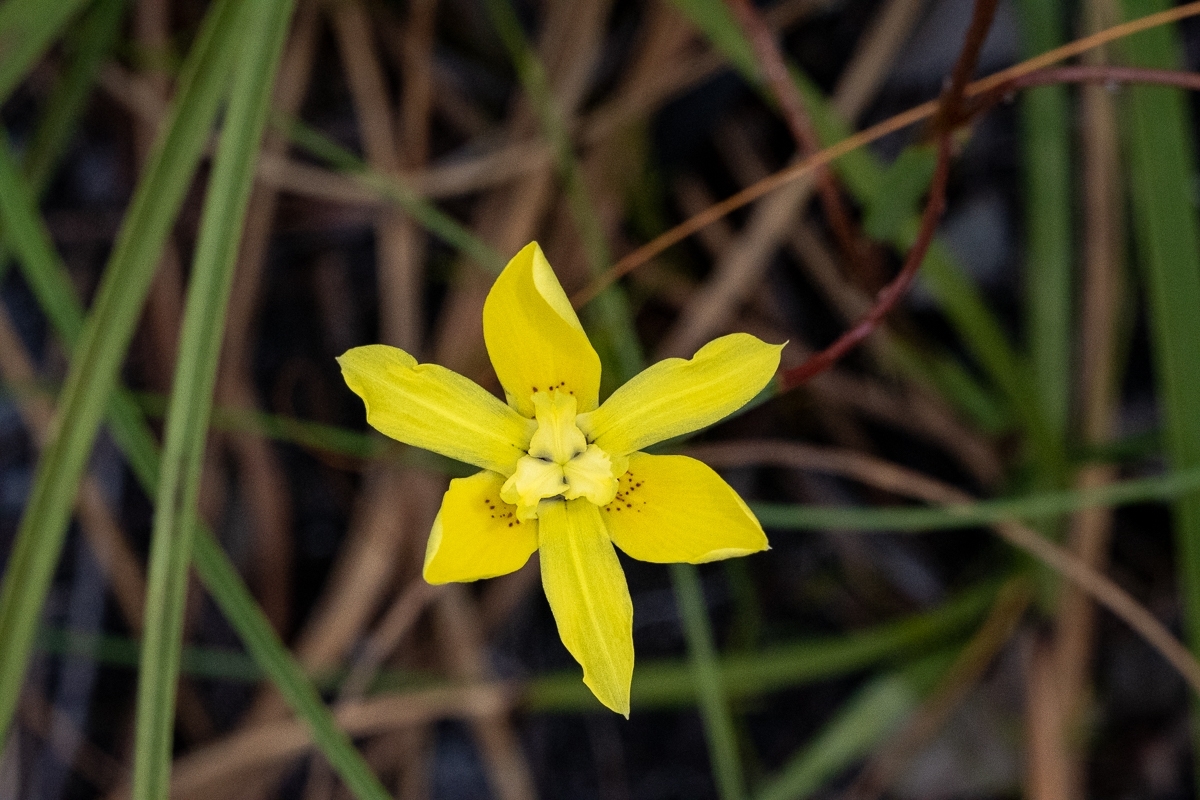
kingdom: Plantae
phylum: Tracheophyta
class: Liliopsida
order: Asparagales
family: Iridaceae
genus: Moraea
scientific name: Moraea bituminosa
